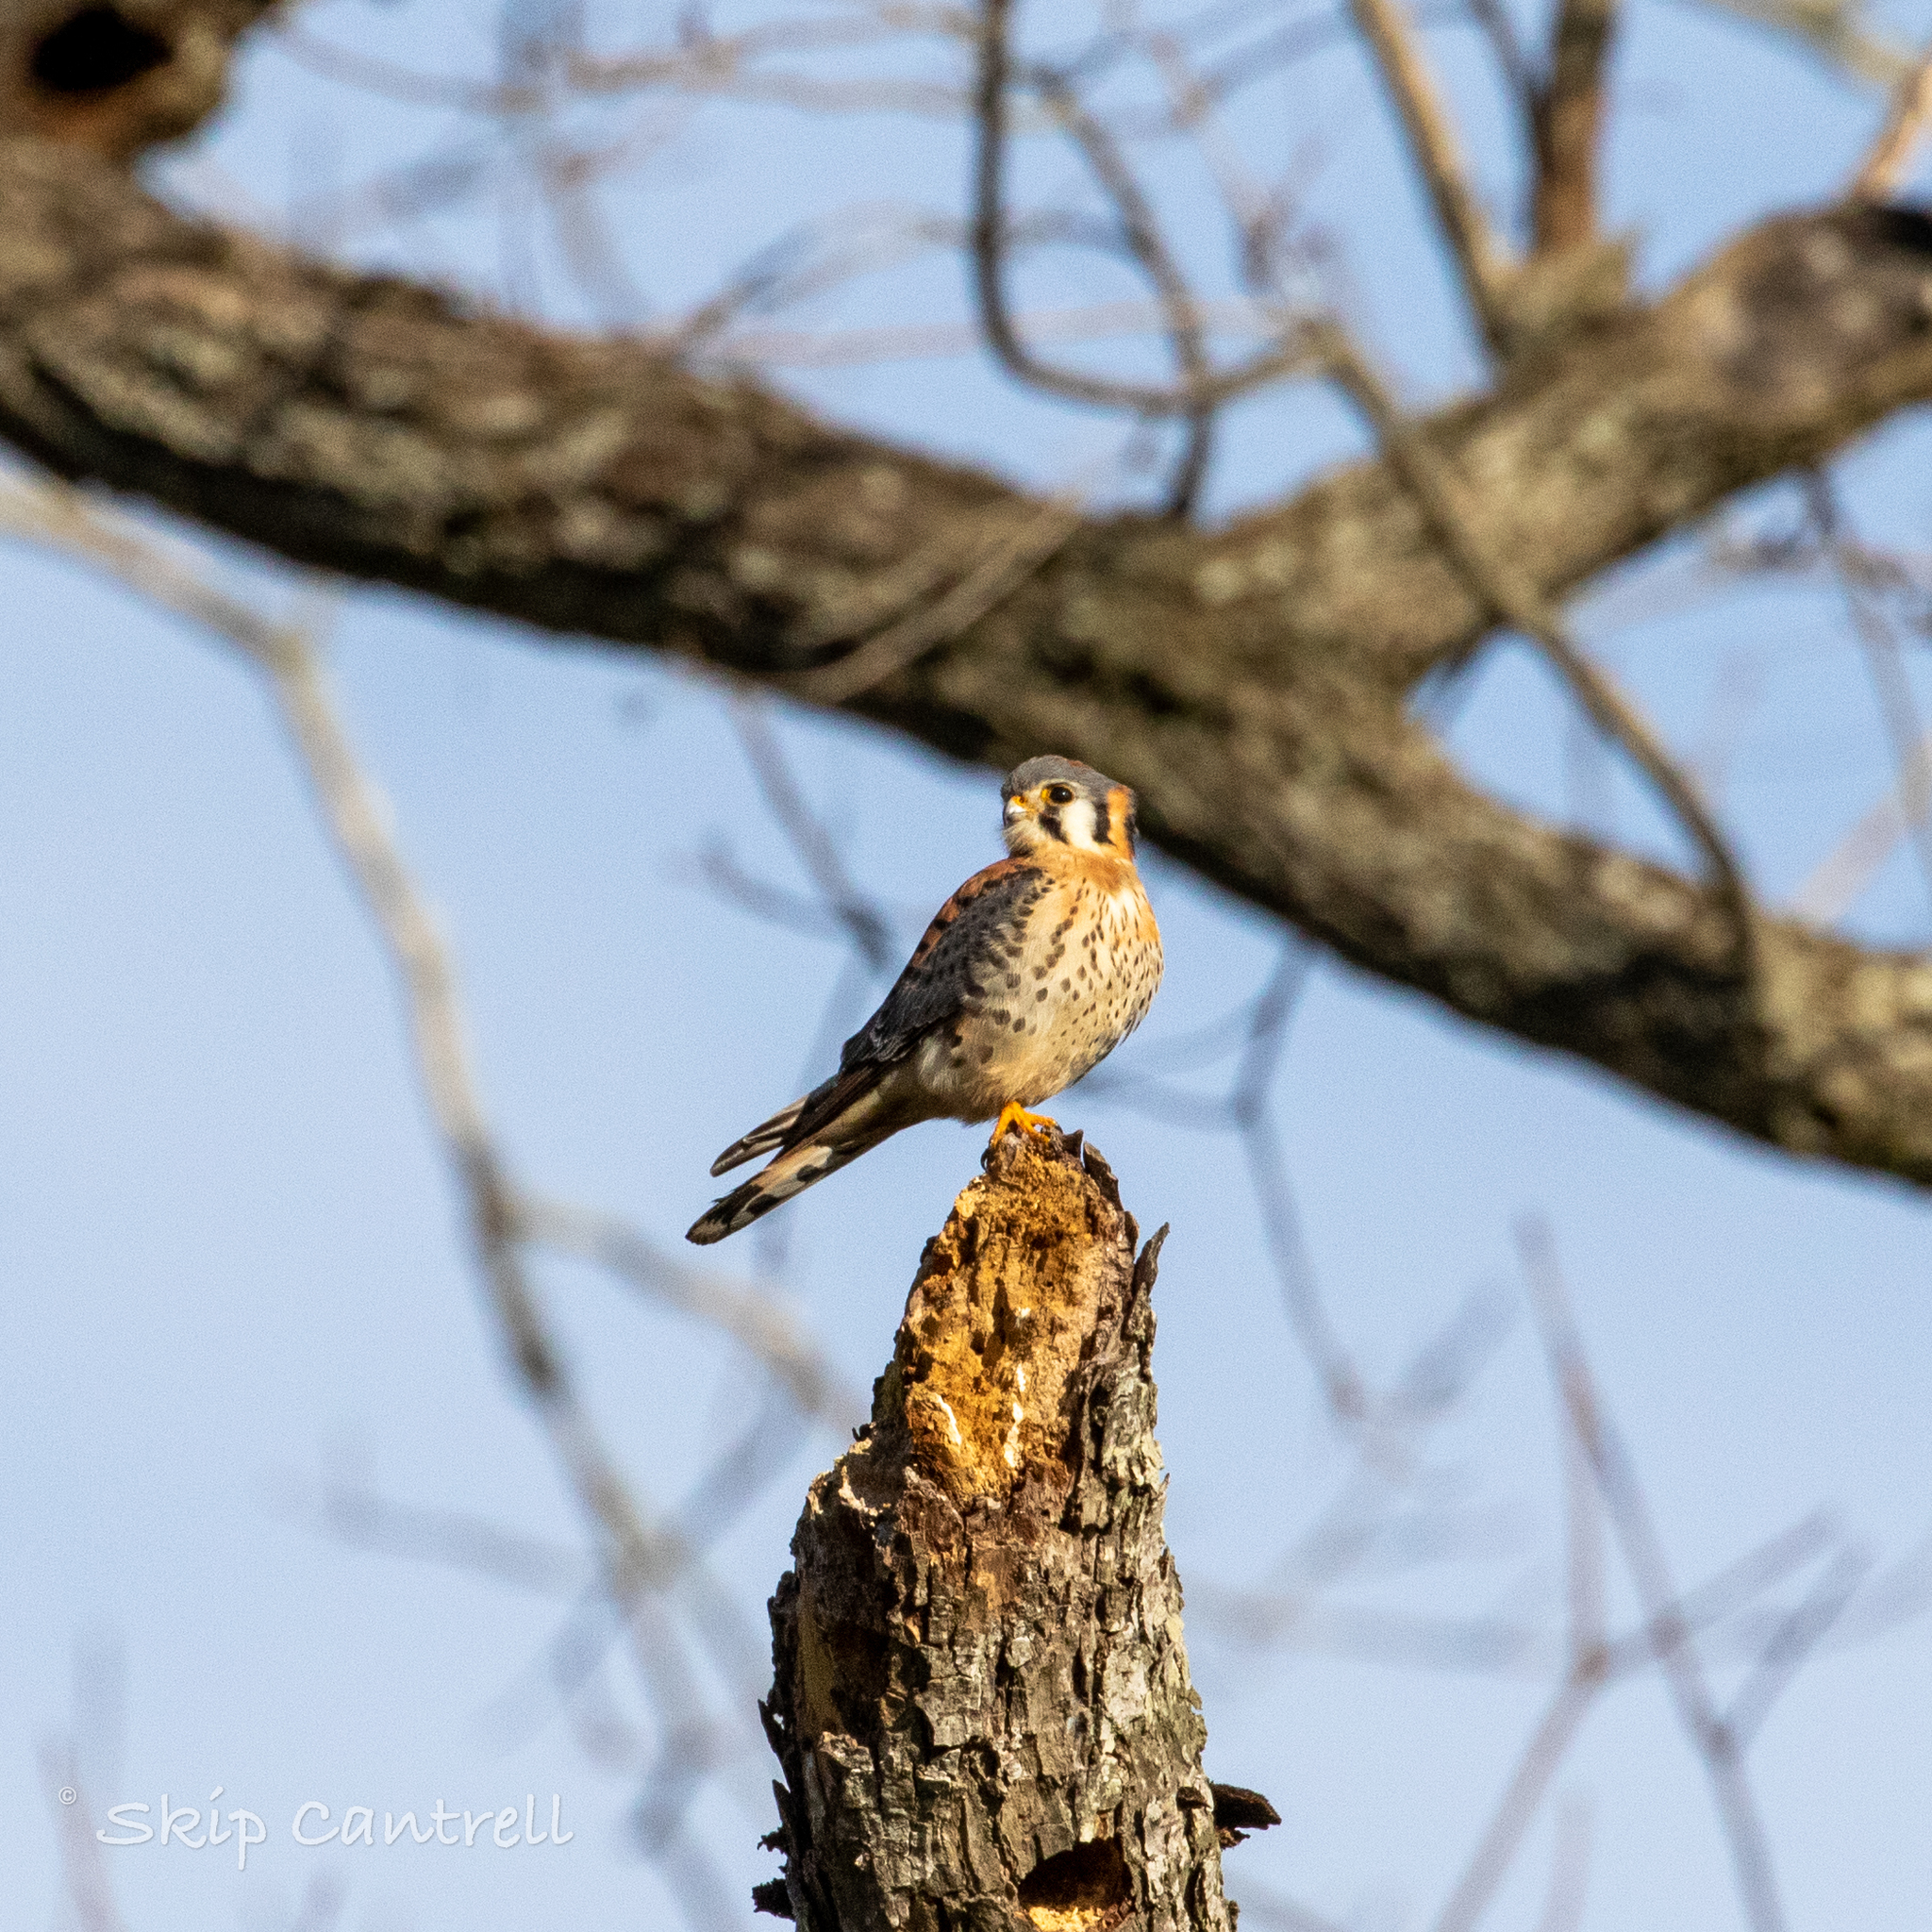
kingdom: Animalia
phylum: Chordata
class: Aves
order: Falconiformes
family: Falconidae
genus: Falco
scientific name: Falco sparverius
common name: American kestrel
